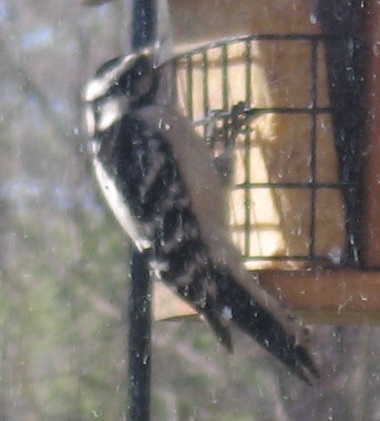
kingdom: Animalia
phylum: Chordata
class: Aves
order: Piciformes
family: Picidae
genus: Dryobates
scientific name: Dryobates pubescens
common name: Downy woodpecker
